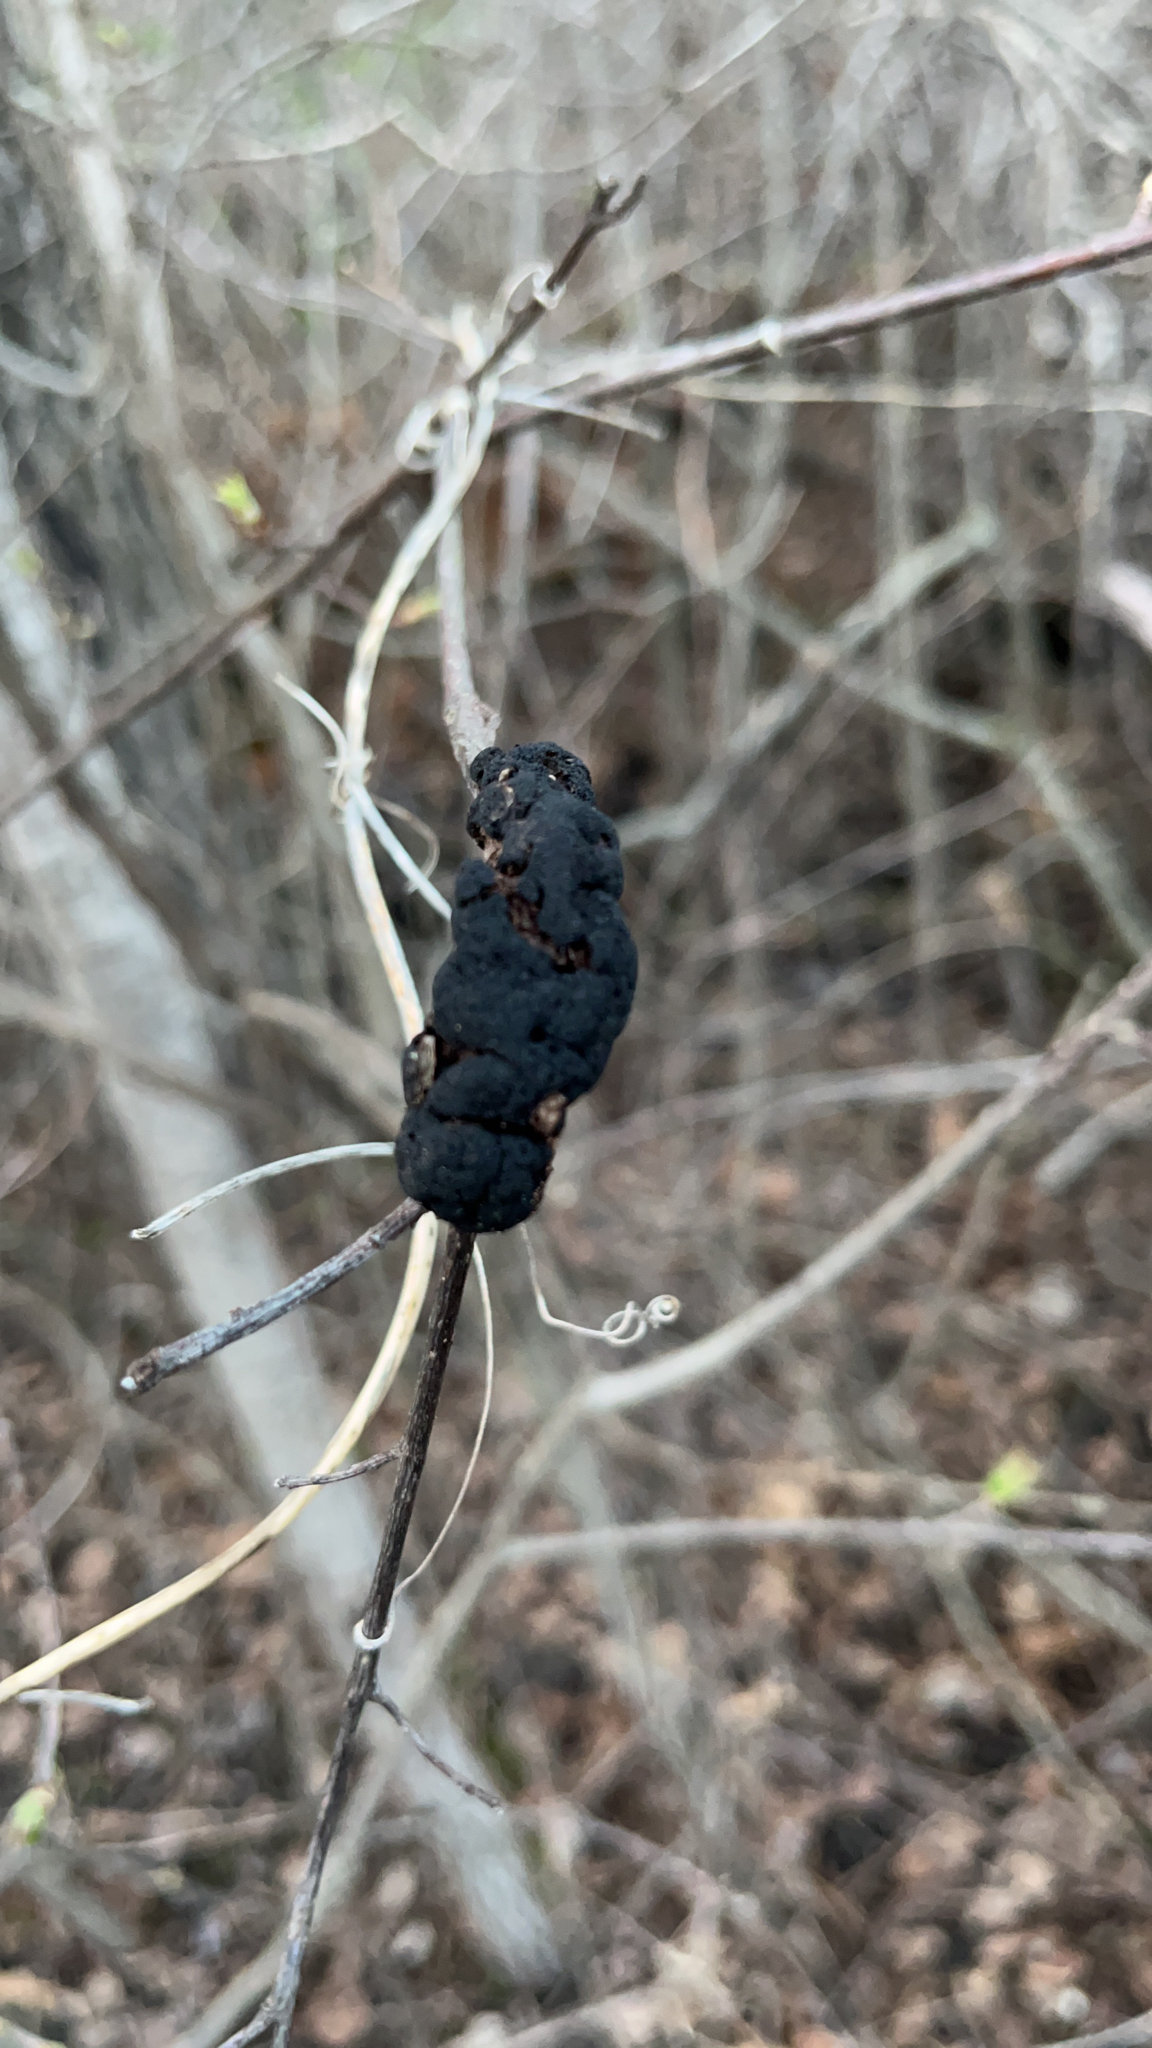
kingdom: Fungi
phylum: Ascomycota
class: Dothideomycetes
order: Venturiales
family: Venturiaceae
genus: Apiosporina
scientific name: Apiosporina morbosa
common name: Black knot
